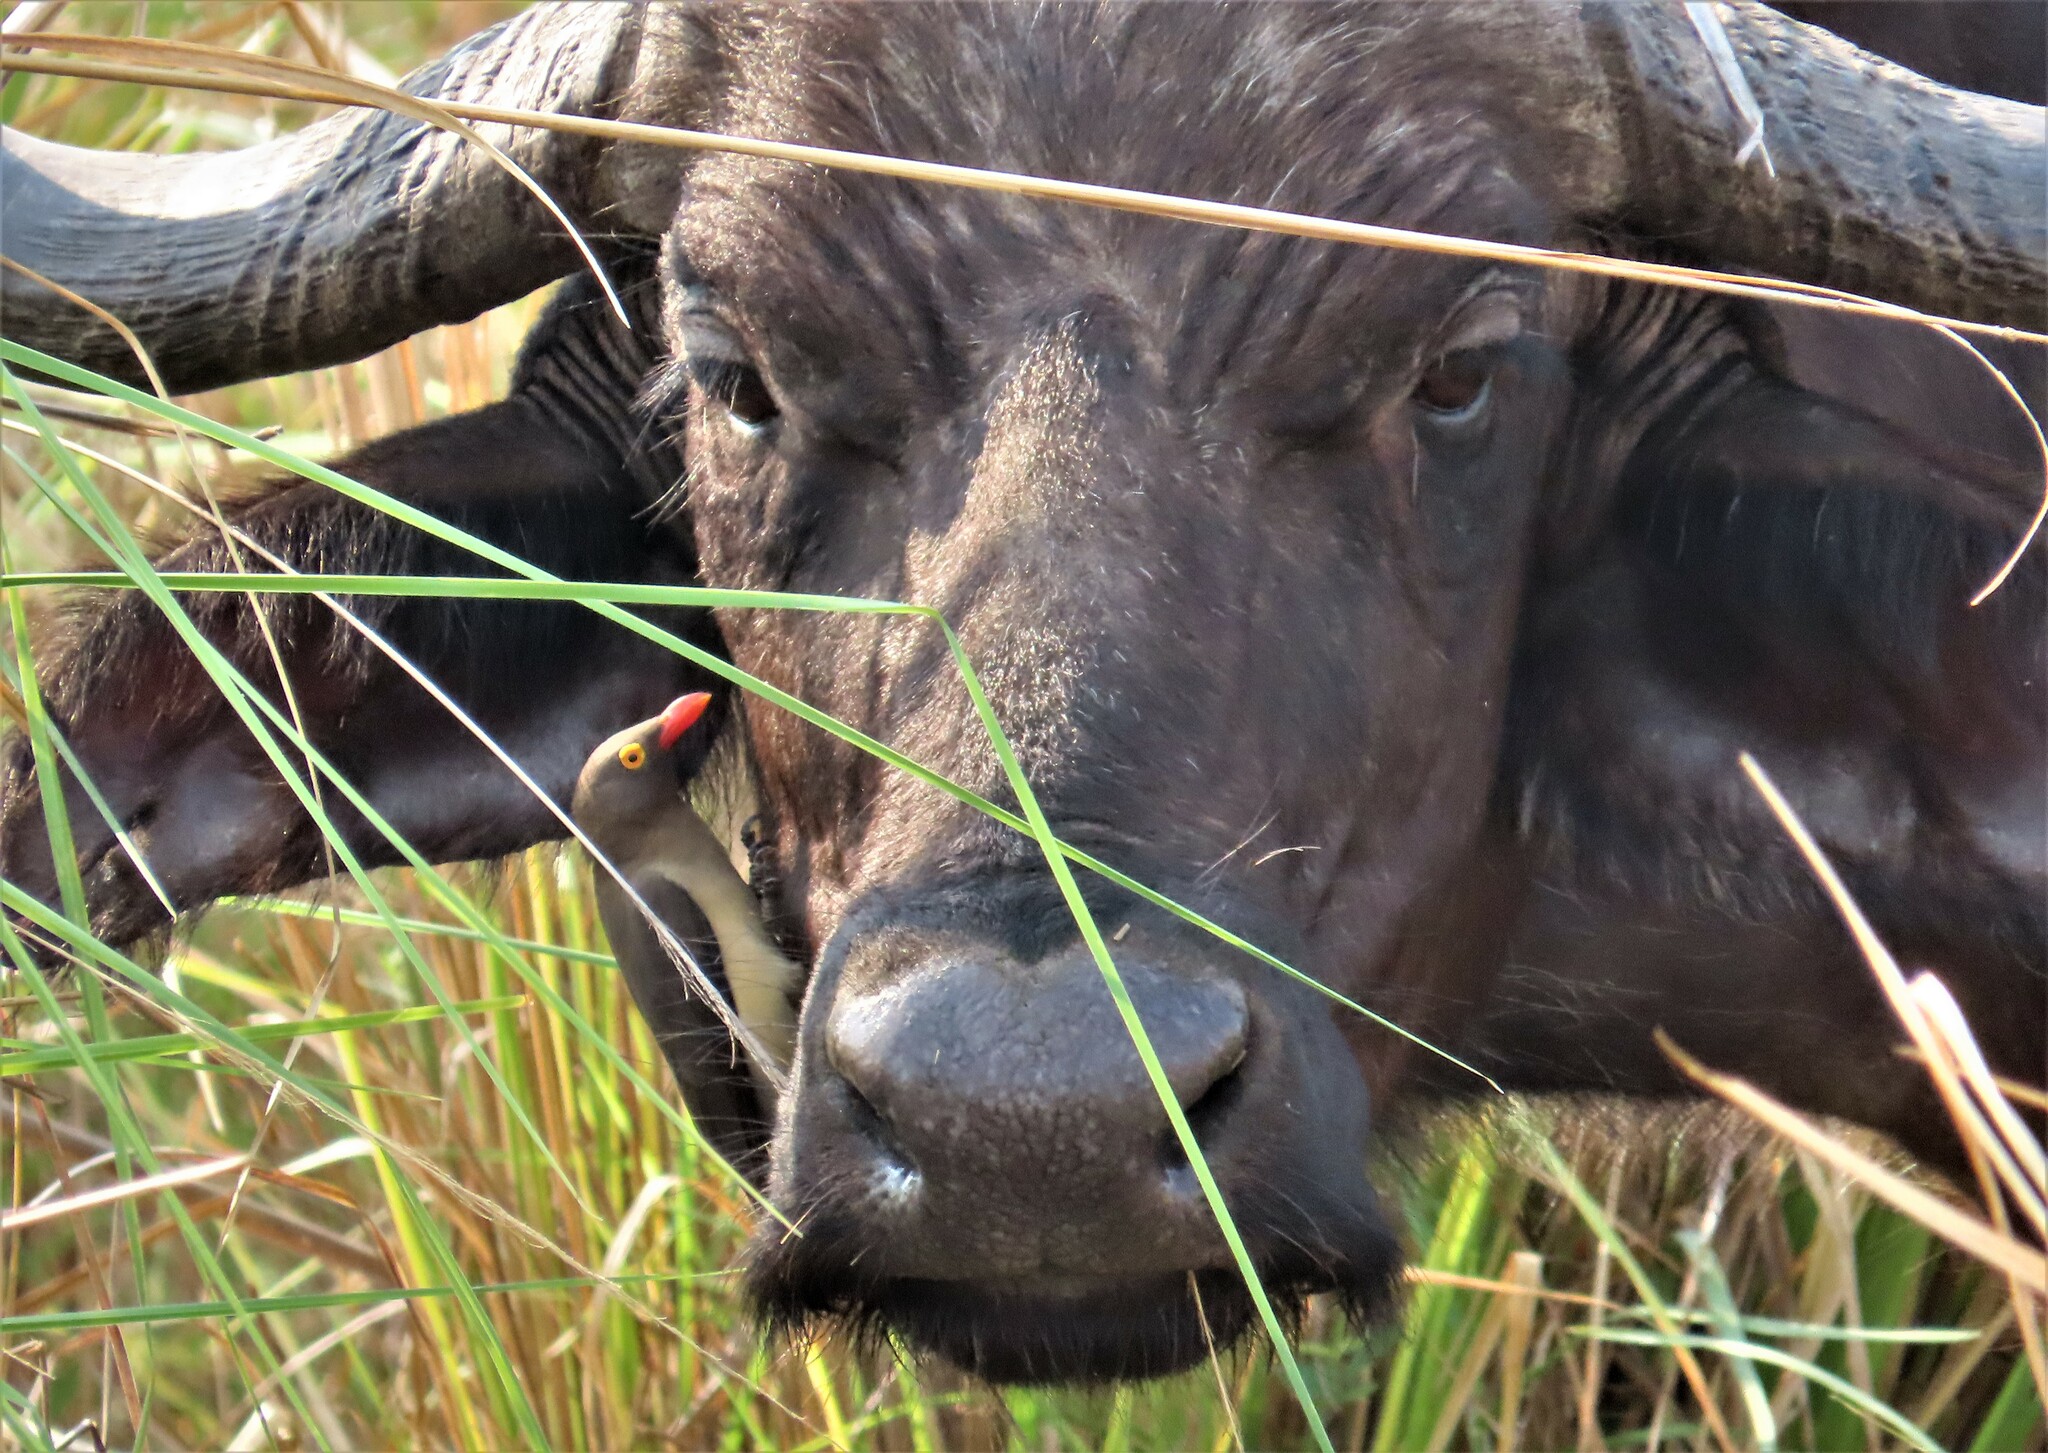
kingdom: Animalia
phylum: Chordata
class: Aves
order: Passeriformes
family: Buphagidae
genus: Buphagus
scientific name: Buphagus erythrorhynchus
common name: Red-billed oxpecker
